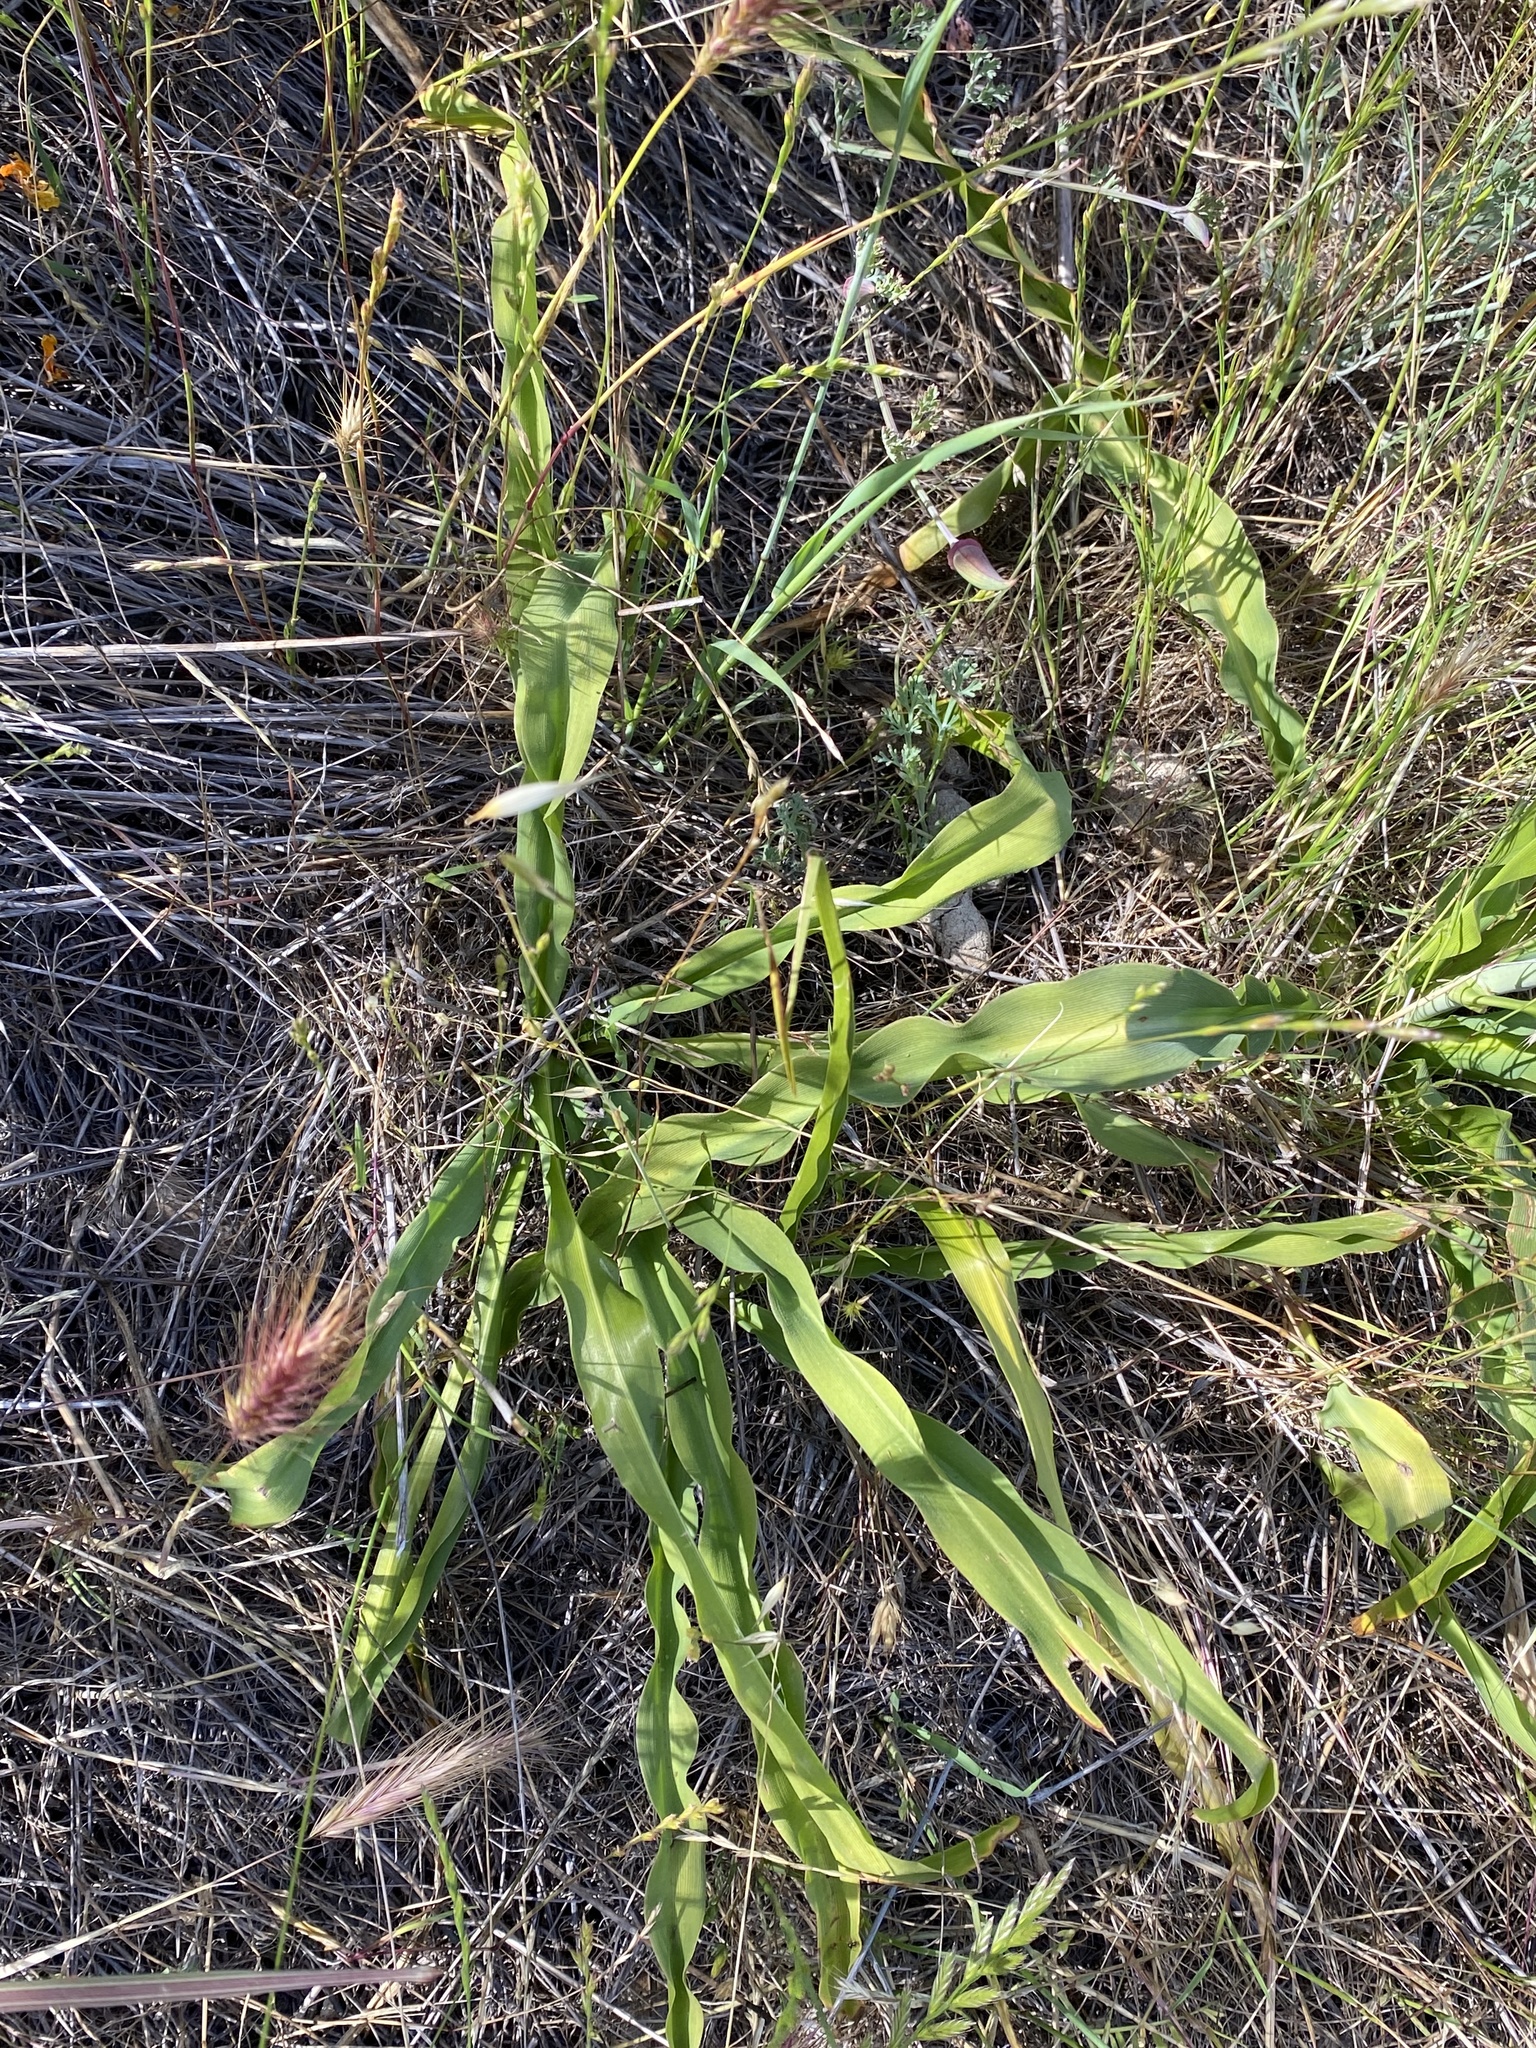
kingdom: Plantae
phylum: Tracheophyta
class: Liliopsida
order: Asparagales
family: Asparagaceae
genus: Chlorogalum
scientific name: Chlorogalum pomeridianum
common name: Amole
